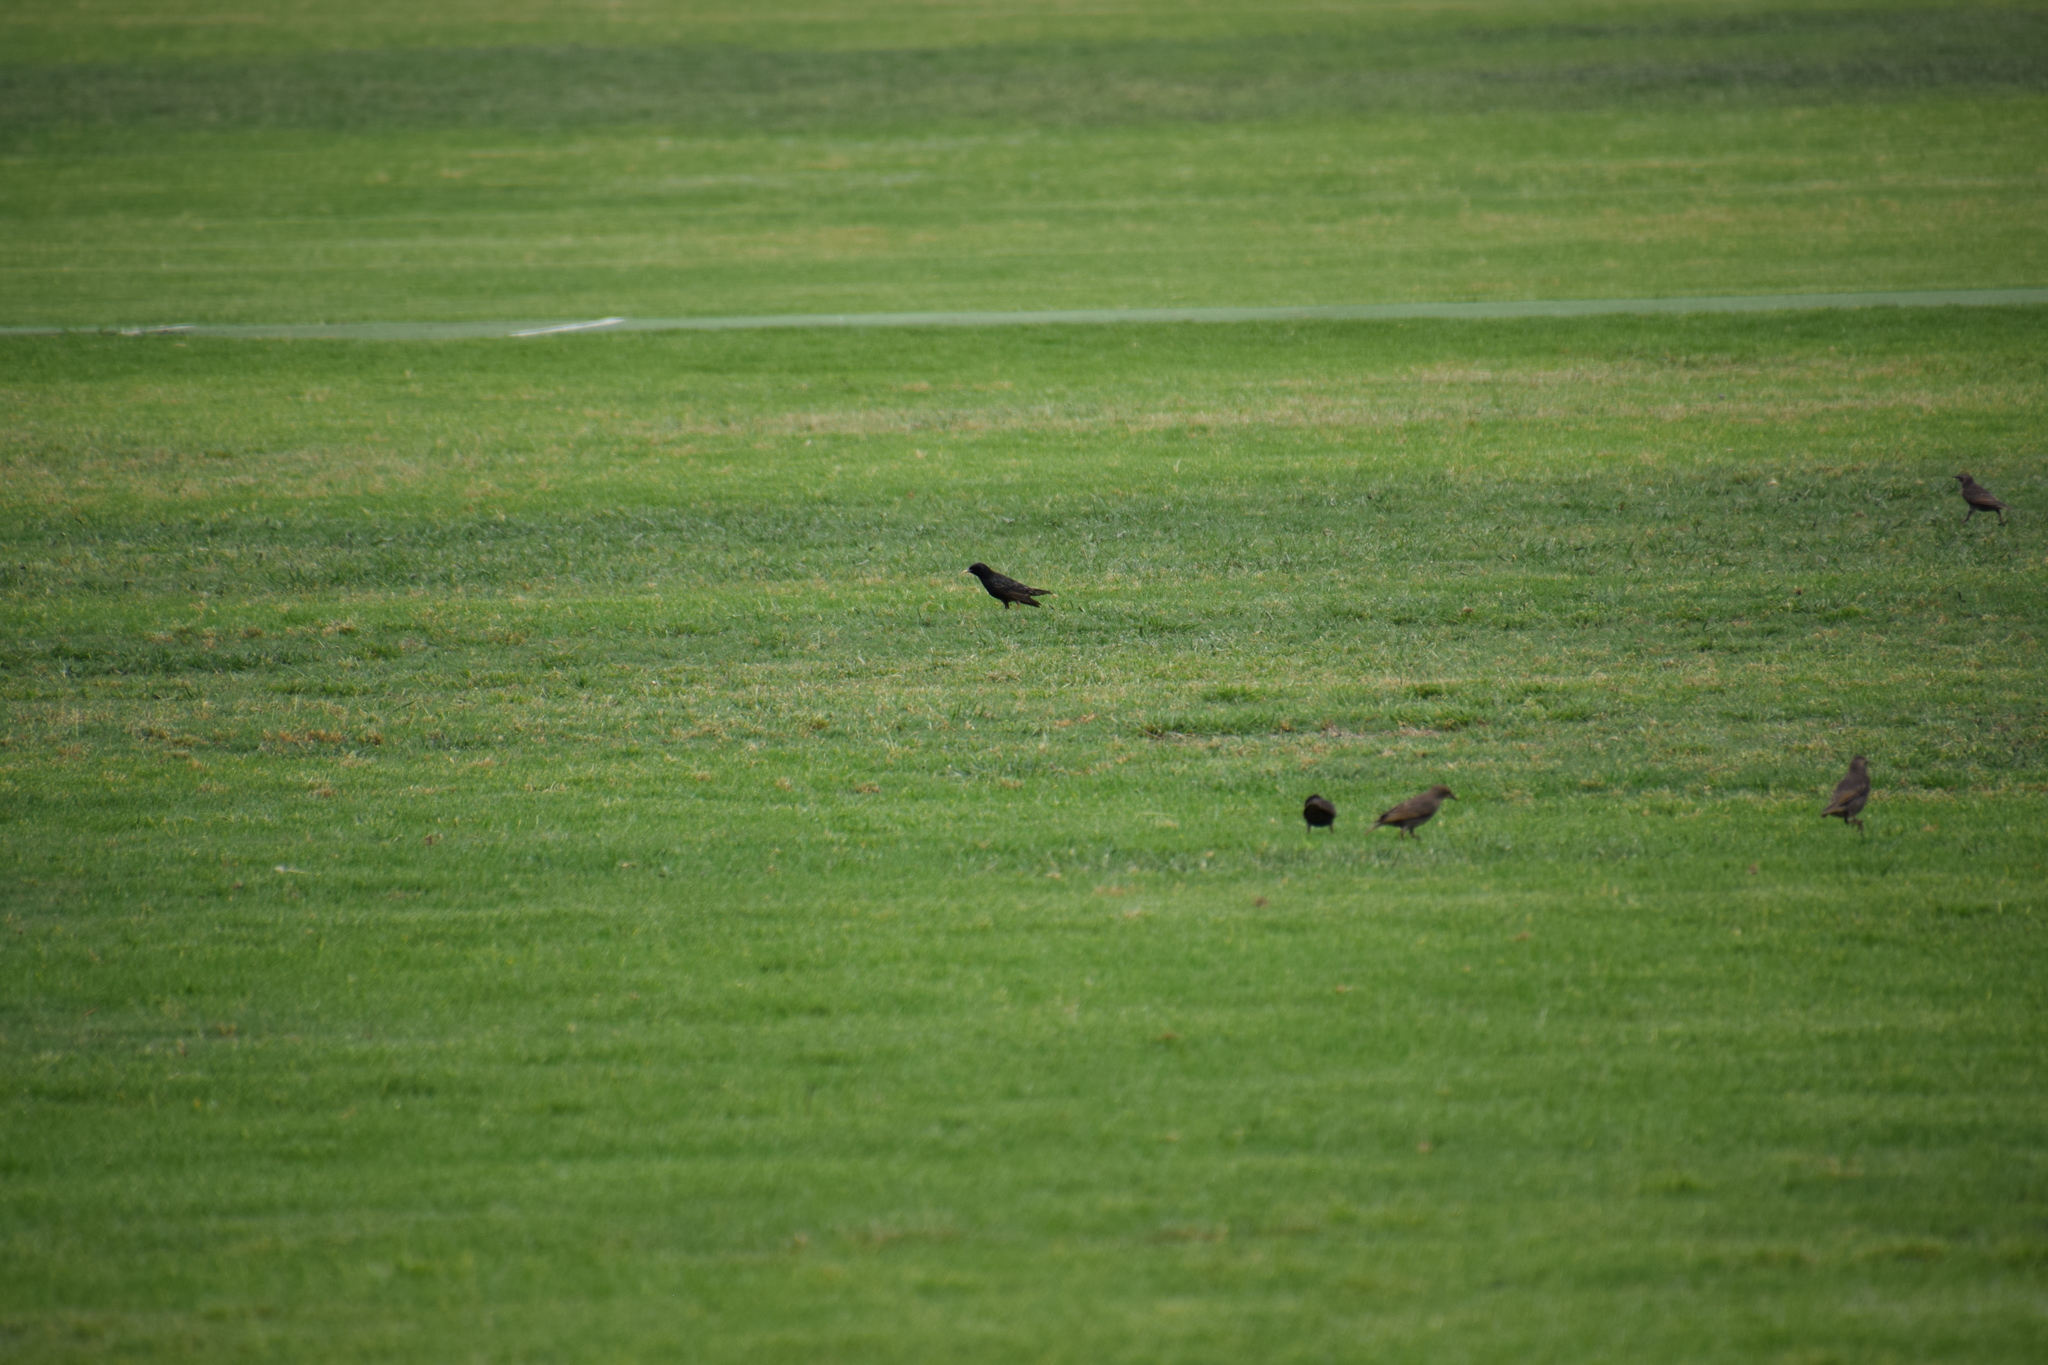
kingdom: Animalia
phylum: Chordata
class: Aves
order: Passeriformes
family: Sturnidae
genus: Sturnus
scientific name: Sturnus vulgaris
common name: Common starling
